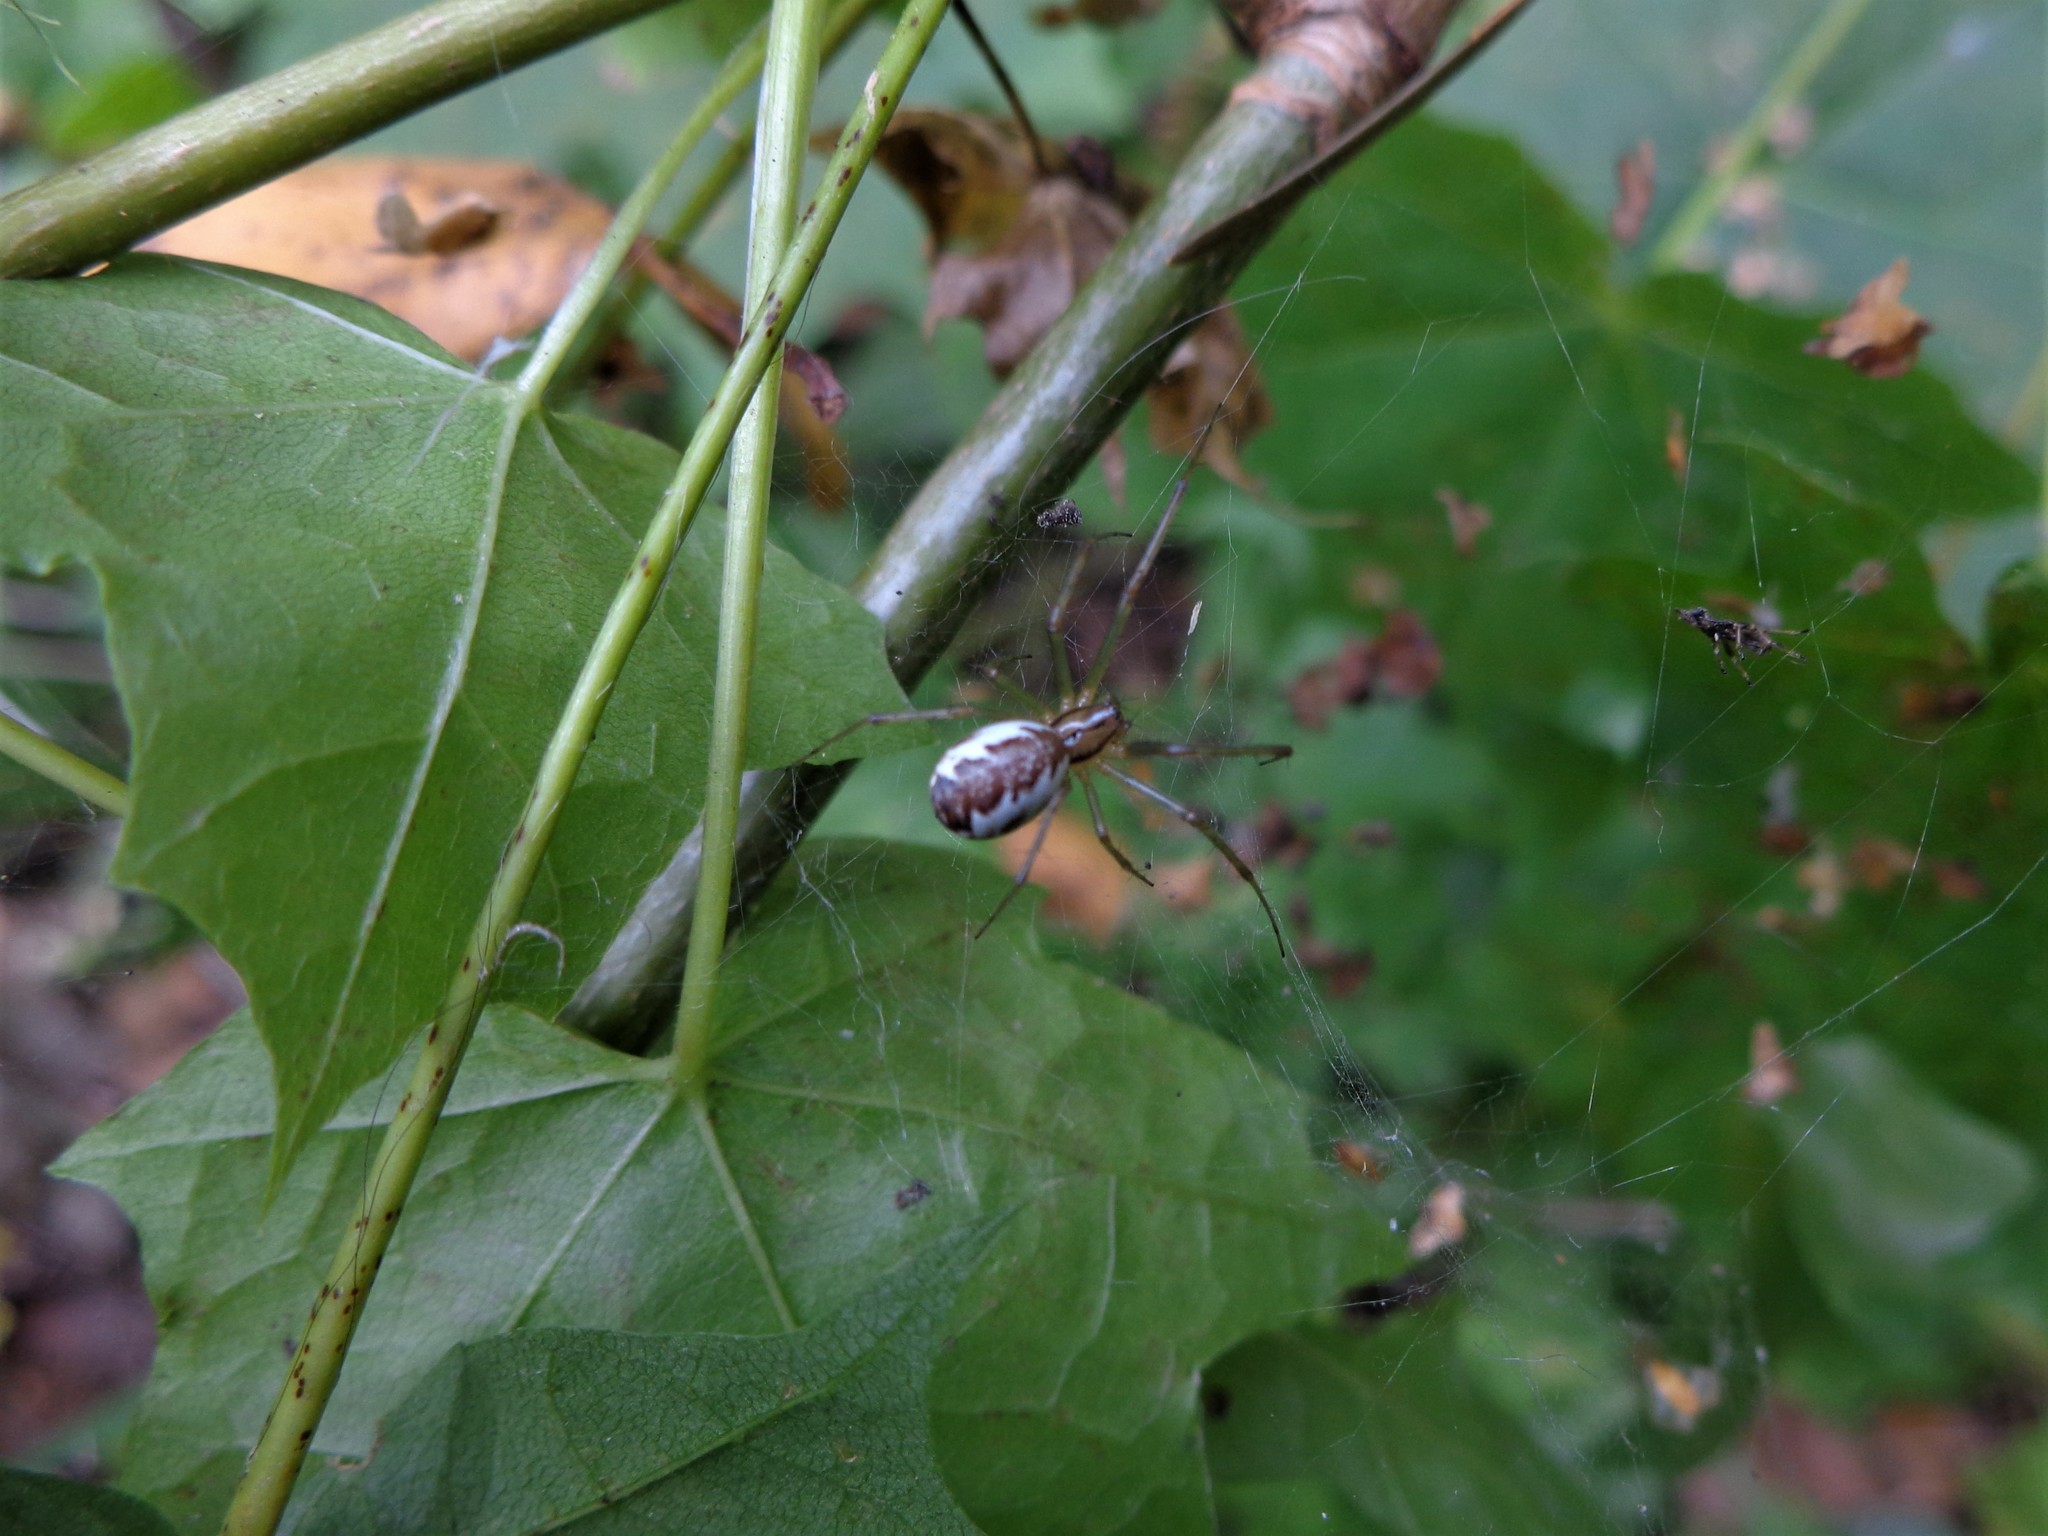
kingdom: Animalia
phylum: Arthropoda
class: Arachnida
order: Araneae
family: Linyphiidae
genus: Linyphia
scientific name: Linyphia triangularis
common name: Money spider
